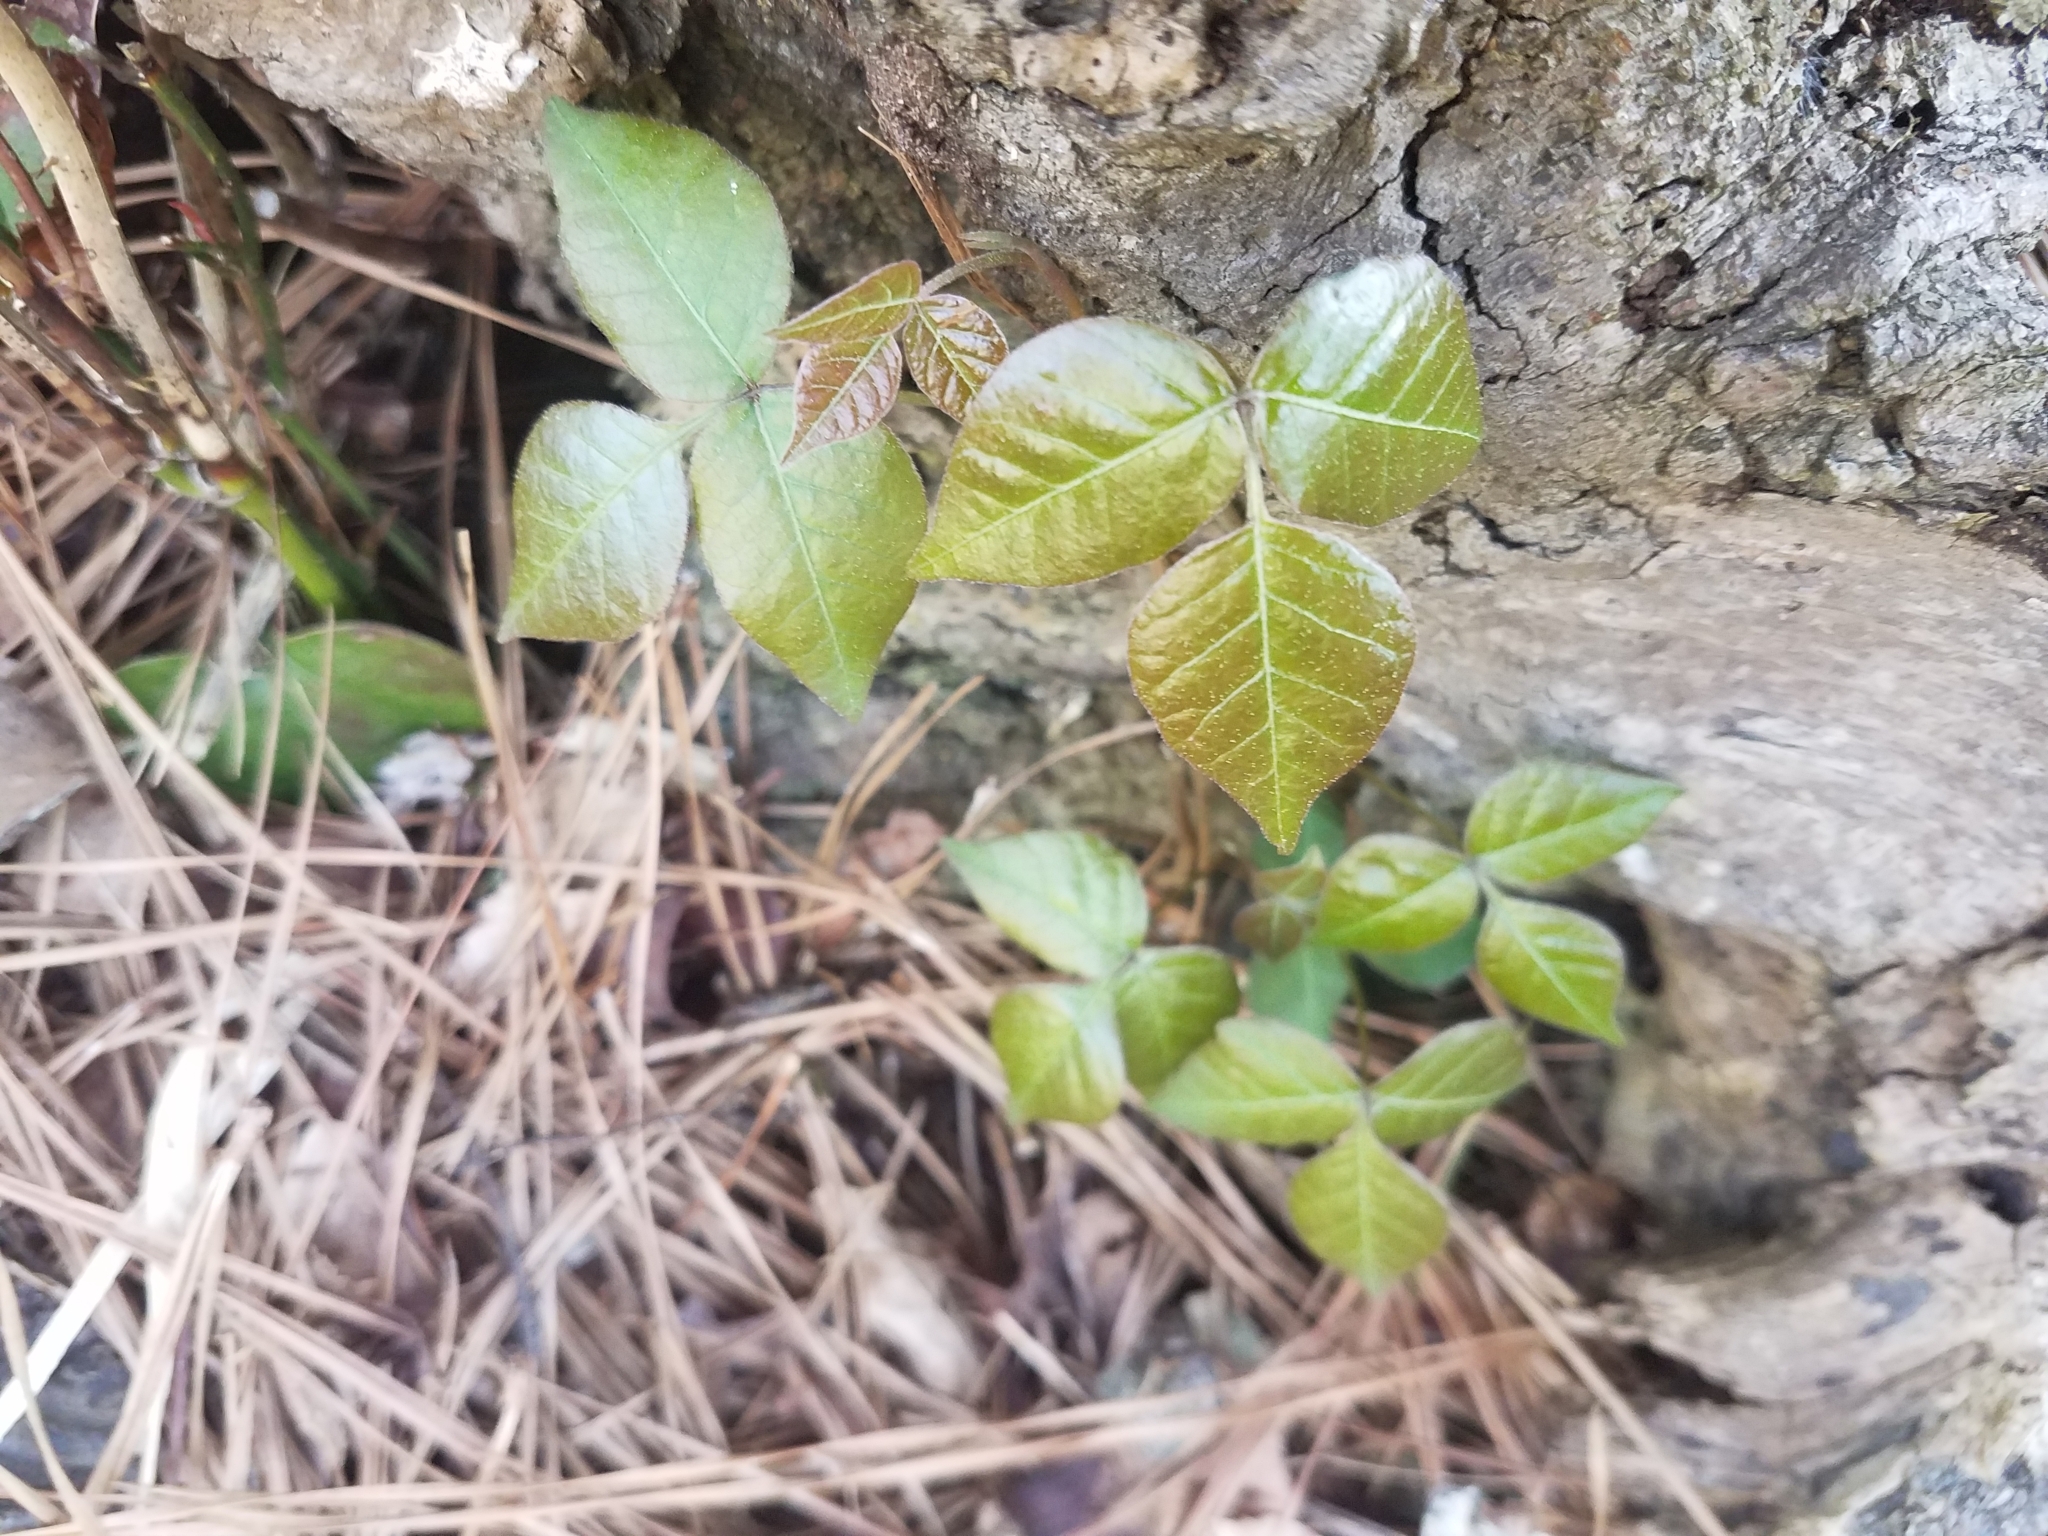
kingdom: Plantae
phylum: Tracheophyta
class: Magnoliopsida
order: Sapindales
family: Anacardiaceae
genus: Toxicodendron
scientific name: Toxicodendron radicans
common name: Poison ivy
